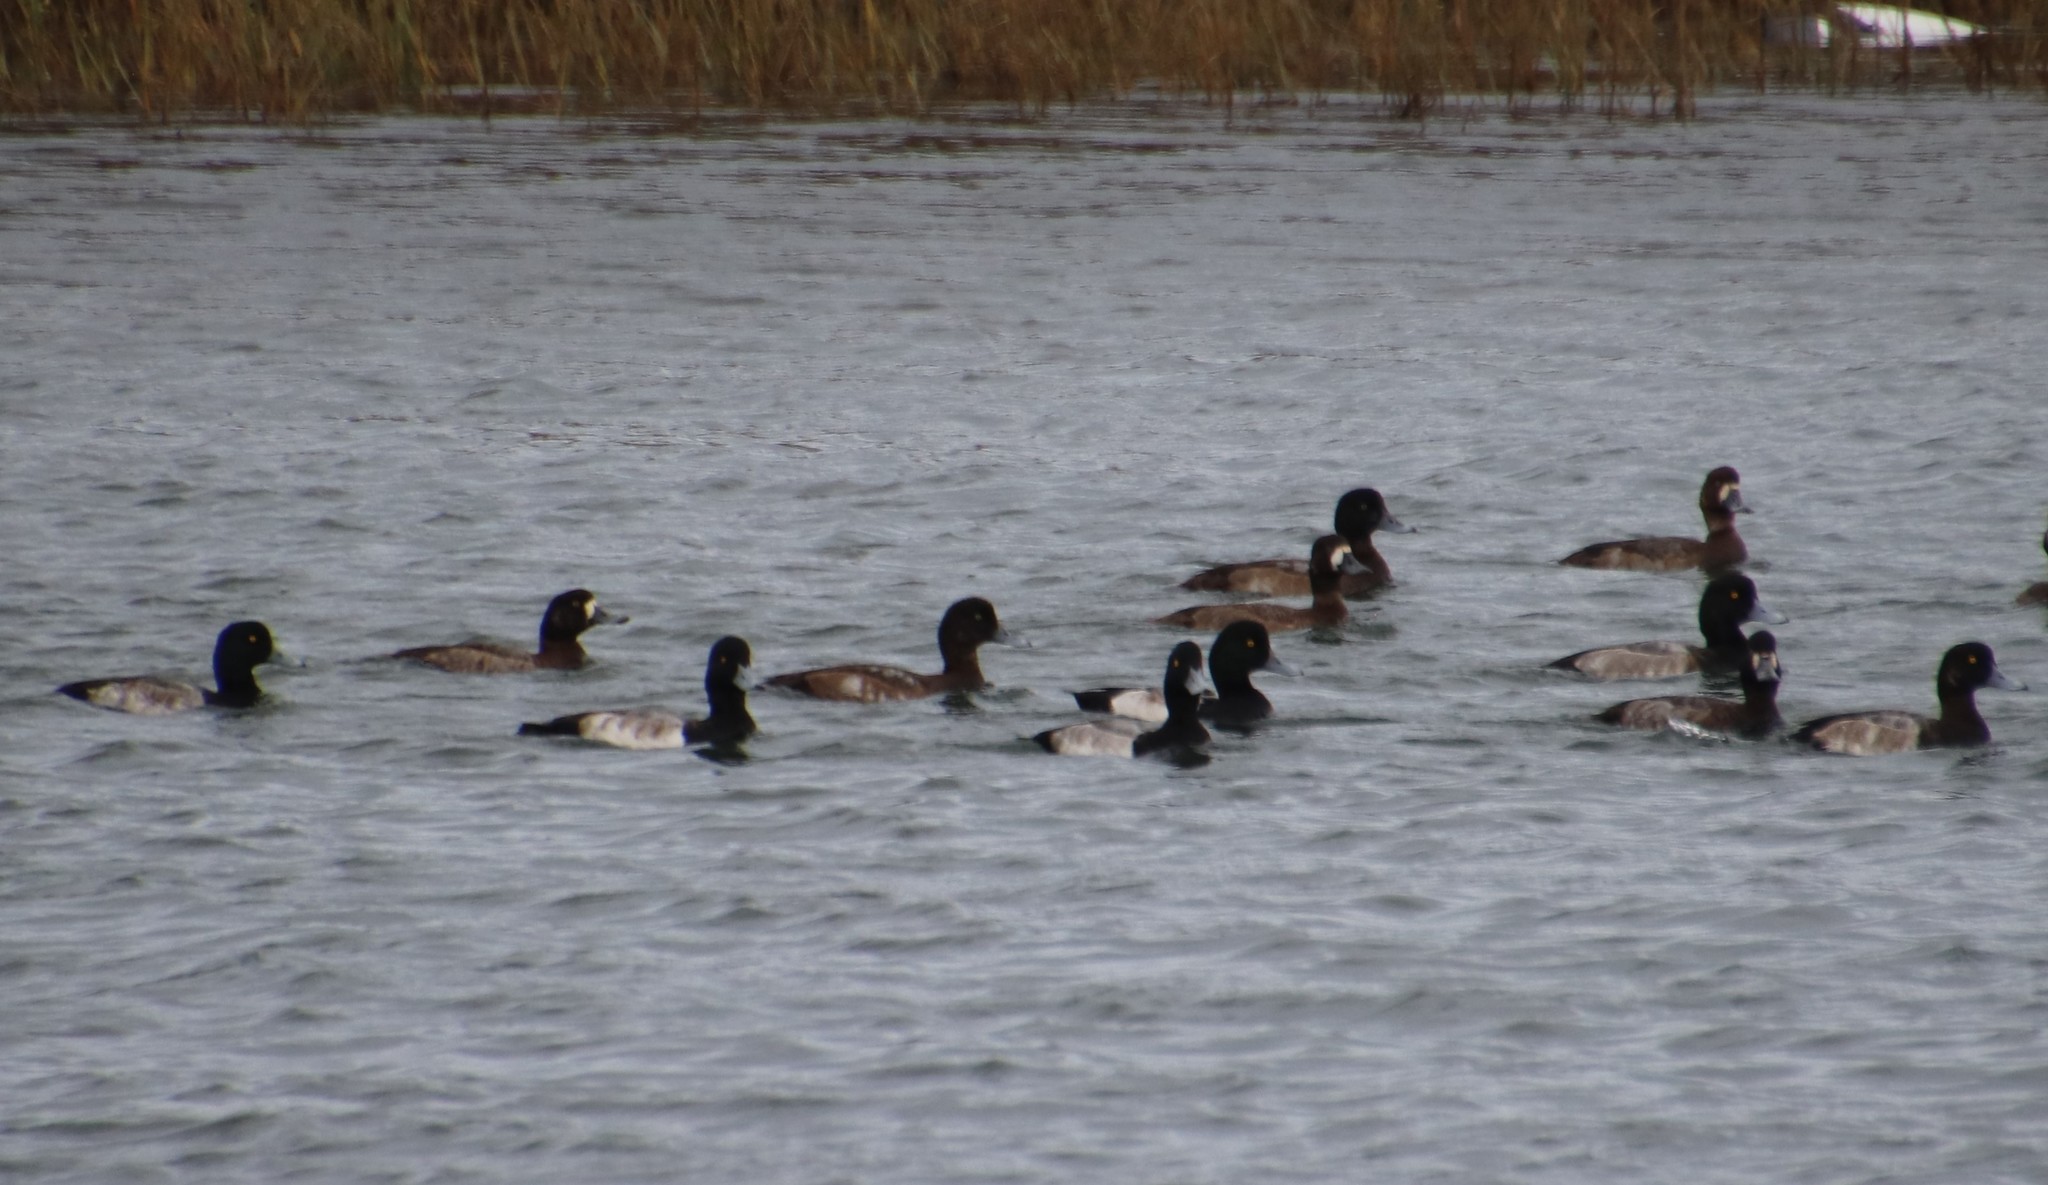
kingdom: Animalia
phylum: Chordata
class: Aves
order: Anseriformes
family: Anatidae
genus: Aythya
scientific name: Aythya affinis
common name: Lesser scaup
